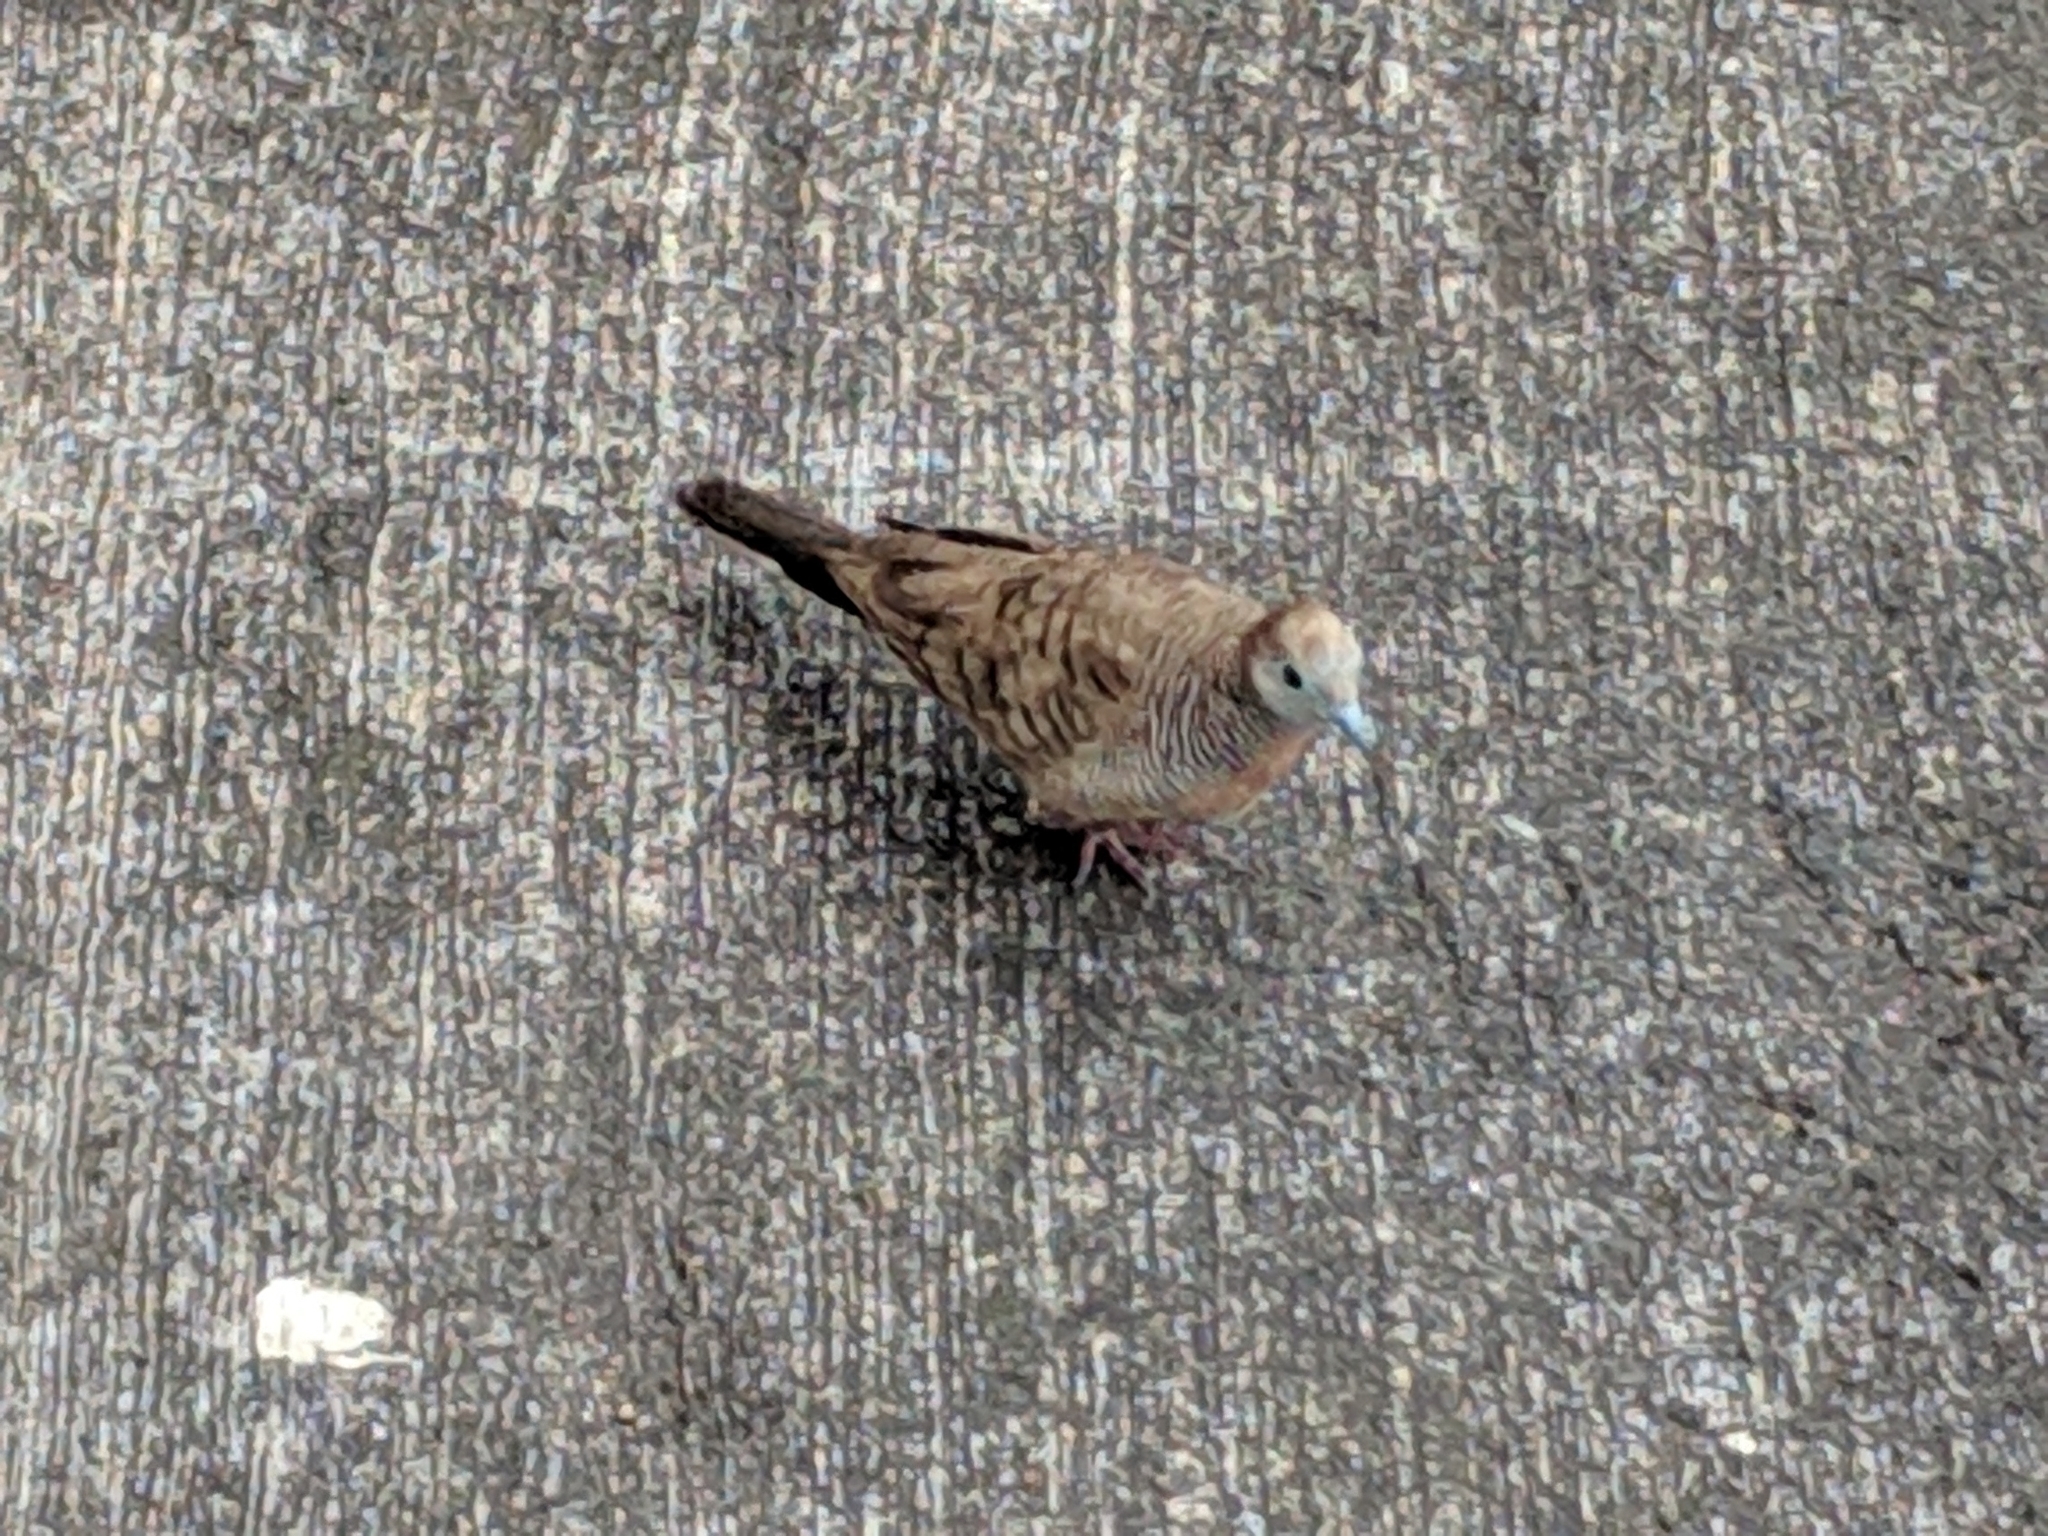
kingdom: Animalia
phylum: Chordata
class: Aves
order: Columbiformes
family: Columbidae
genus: Geopelia
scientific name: Geopelia striata
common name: Zebra dove
